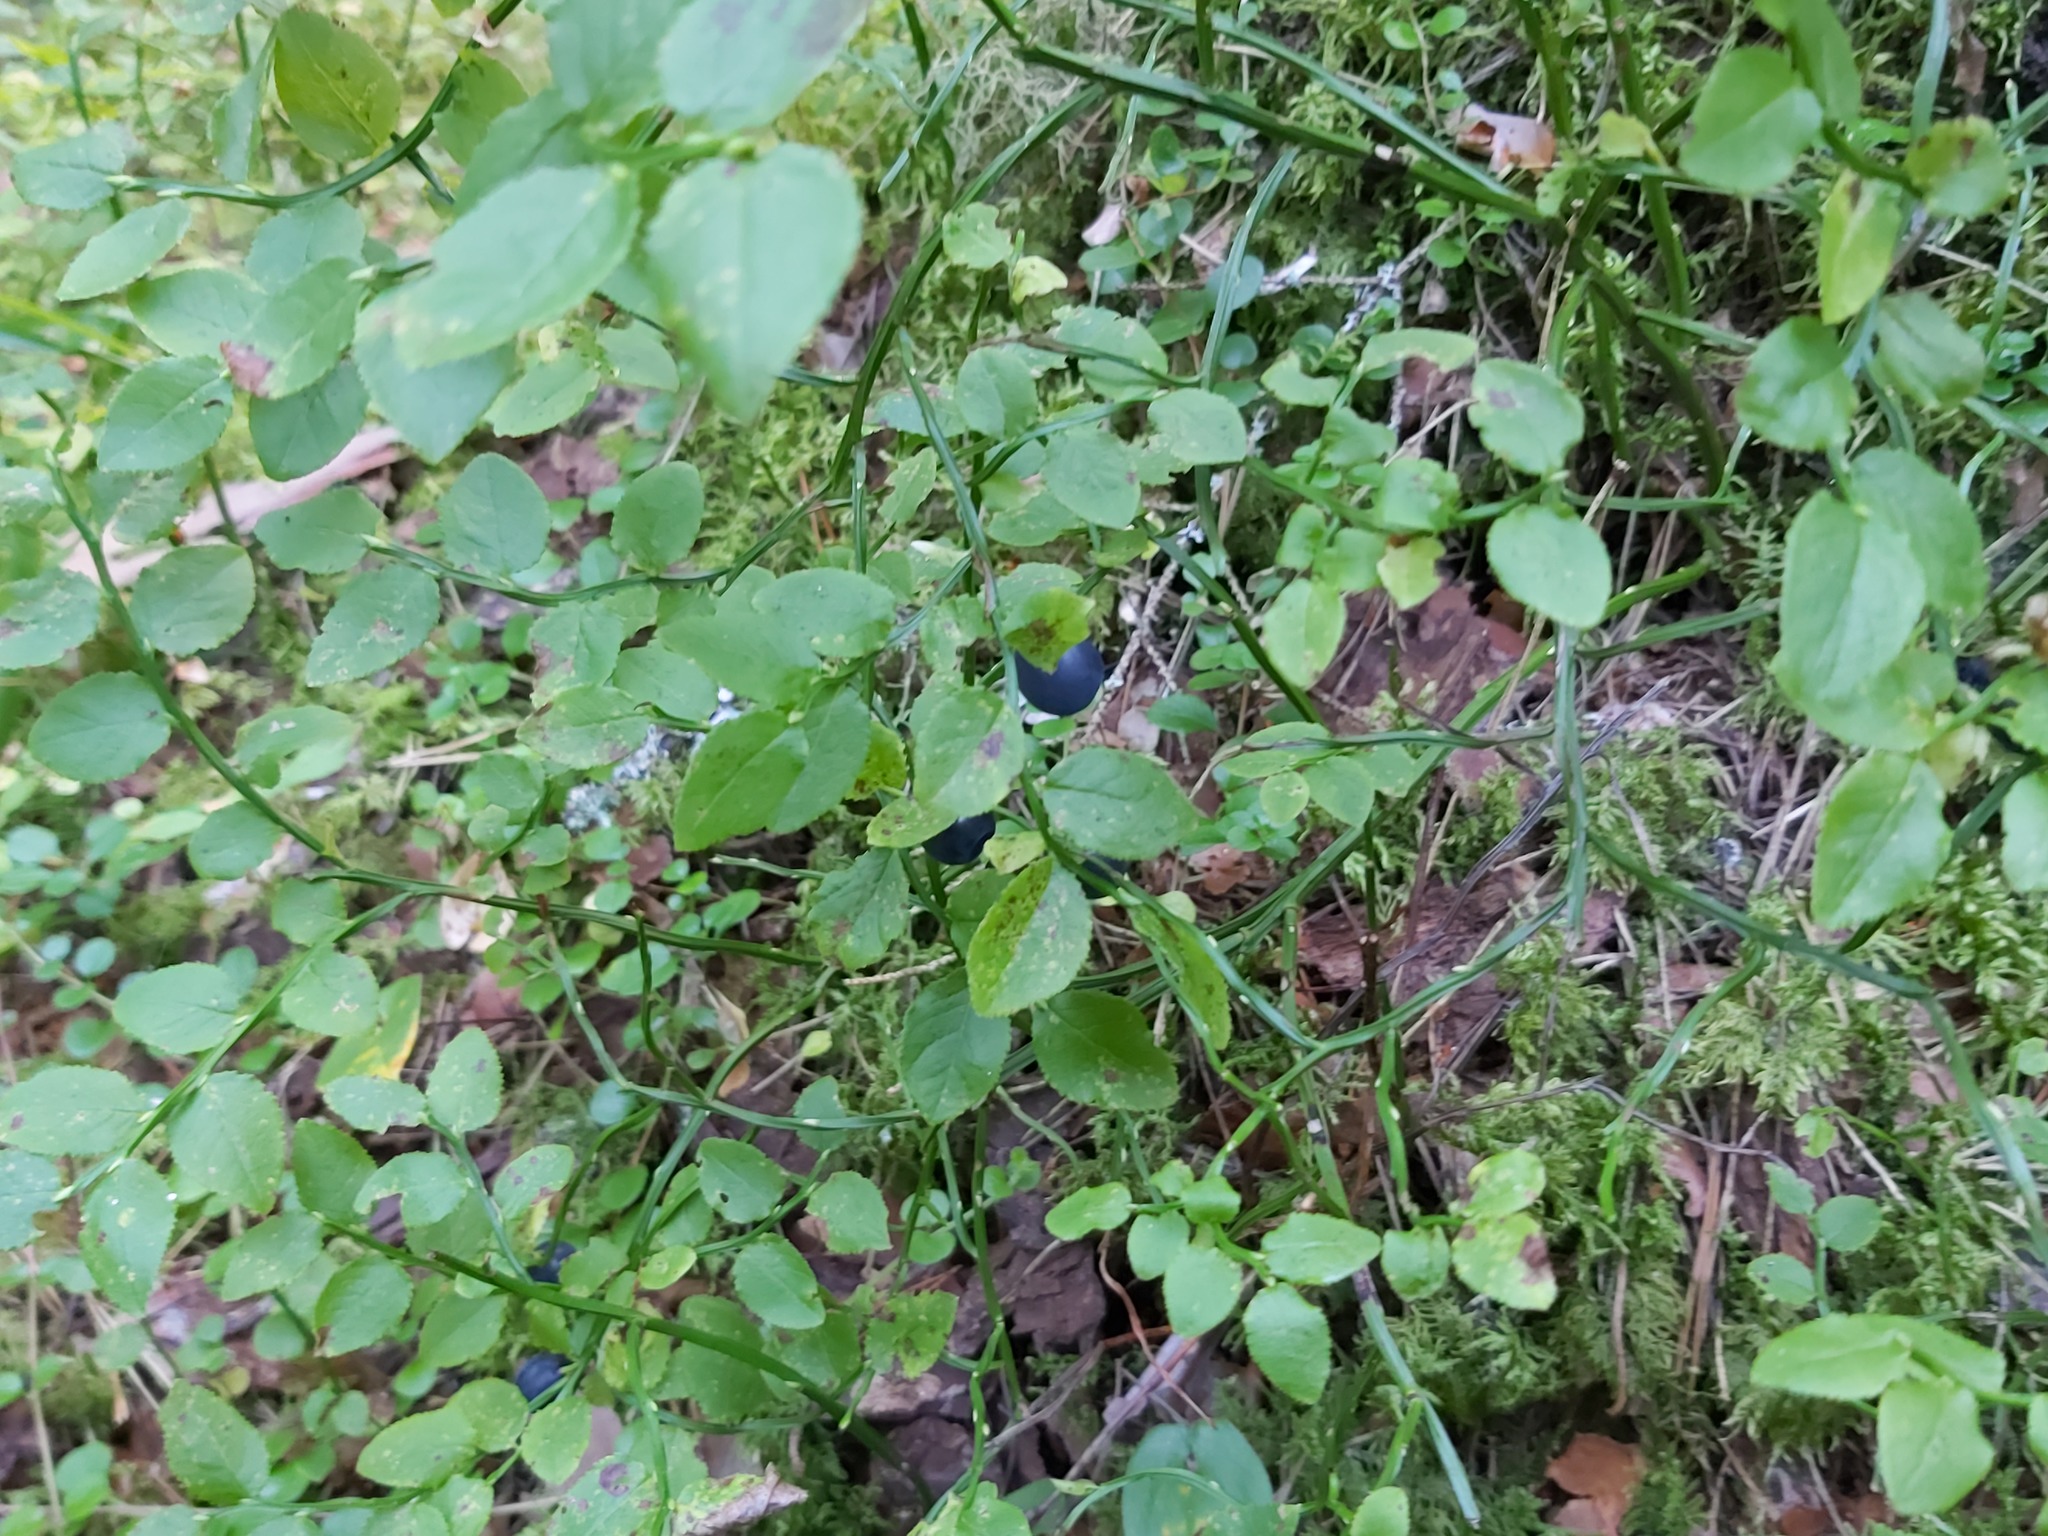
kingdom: Plantae
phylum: Tracheophyta
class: Magnoliopsida
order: Ericales
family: Ericaceae
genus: Vaccinium
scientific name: Vaccinium myrtillus
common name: Bilberry
